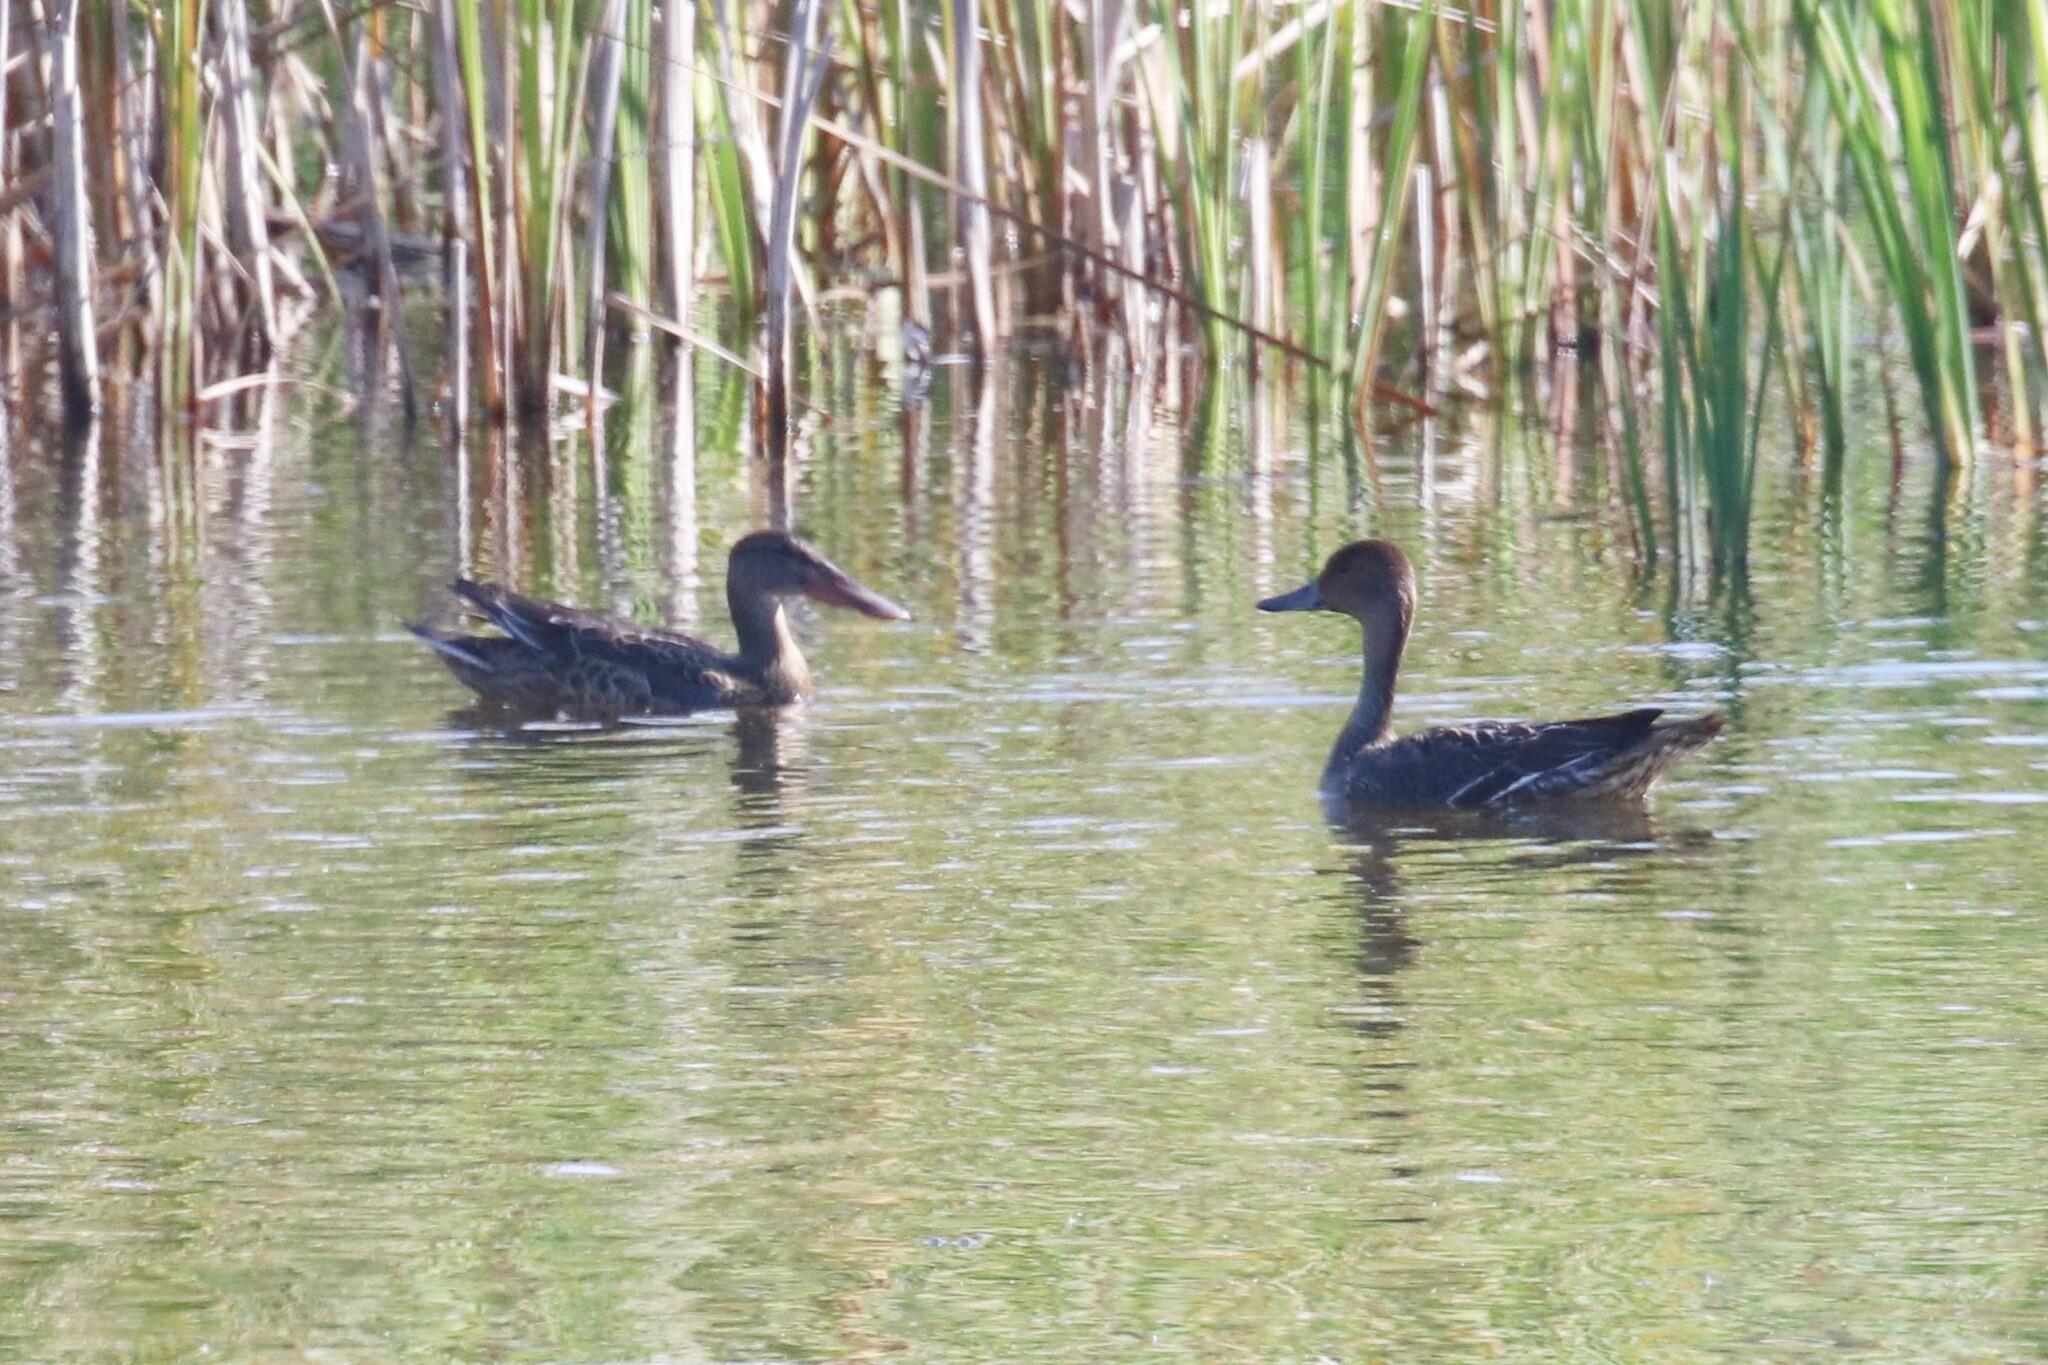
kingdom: Animalia
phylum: Chordata
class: Aves
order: Anseriformes
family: Anatidae
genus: Spatula
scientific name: Spatula clypeata
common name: Northern shoveler
